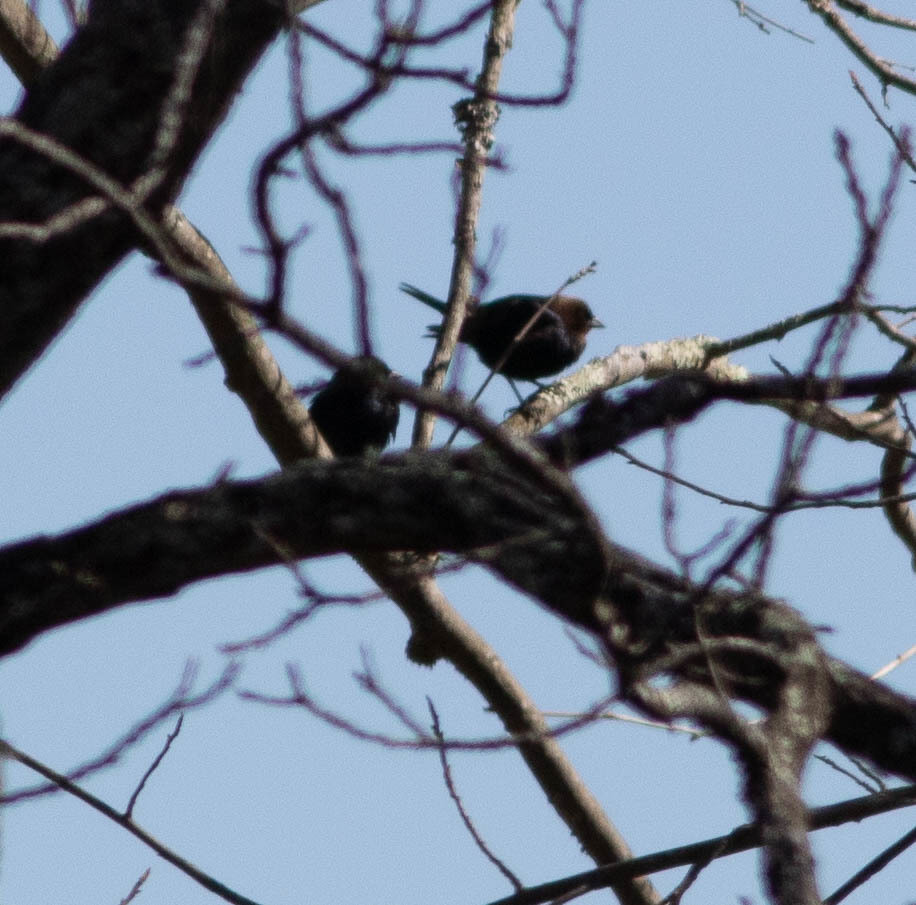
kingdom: Animalia
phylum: Chordata
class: Aves
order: Passeriformes
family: Icteridae
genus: Molothrus
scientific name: Molothrus ater
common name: Brown-headed cowbird
